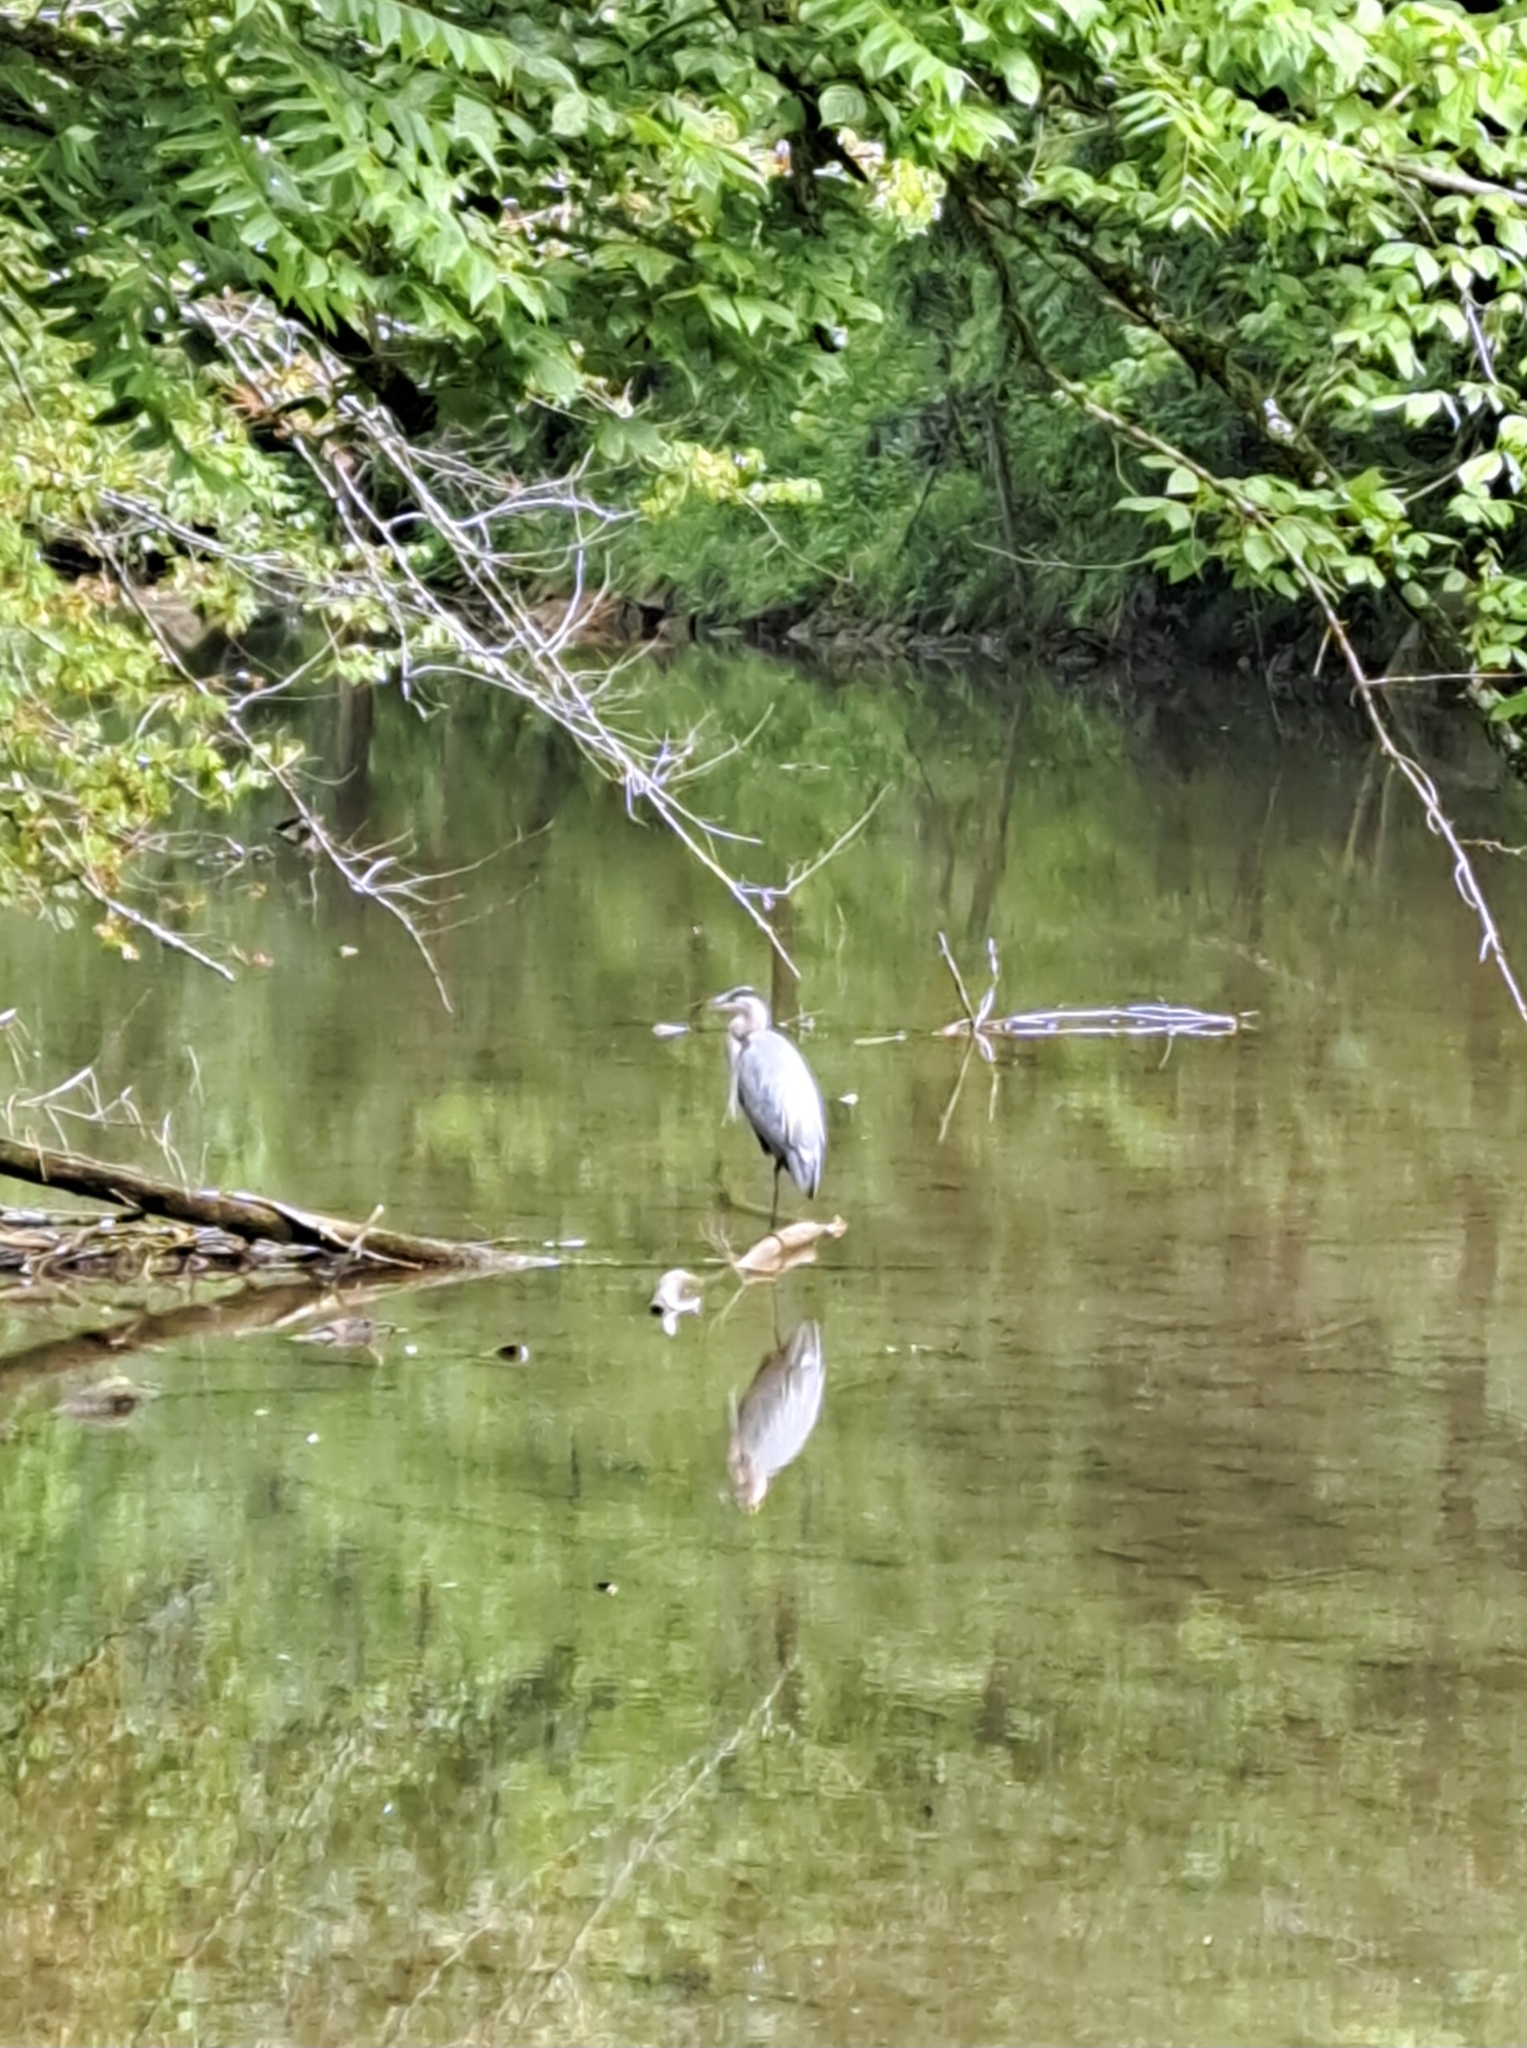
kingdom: Animalia
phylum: Chordata
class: Aves
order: Pelecaniformes
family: Ardeidae
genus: Ardea
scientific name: Ardea herodias
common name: Great blue heron
